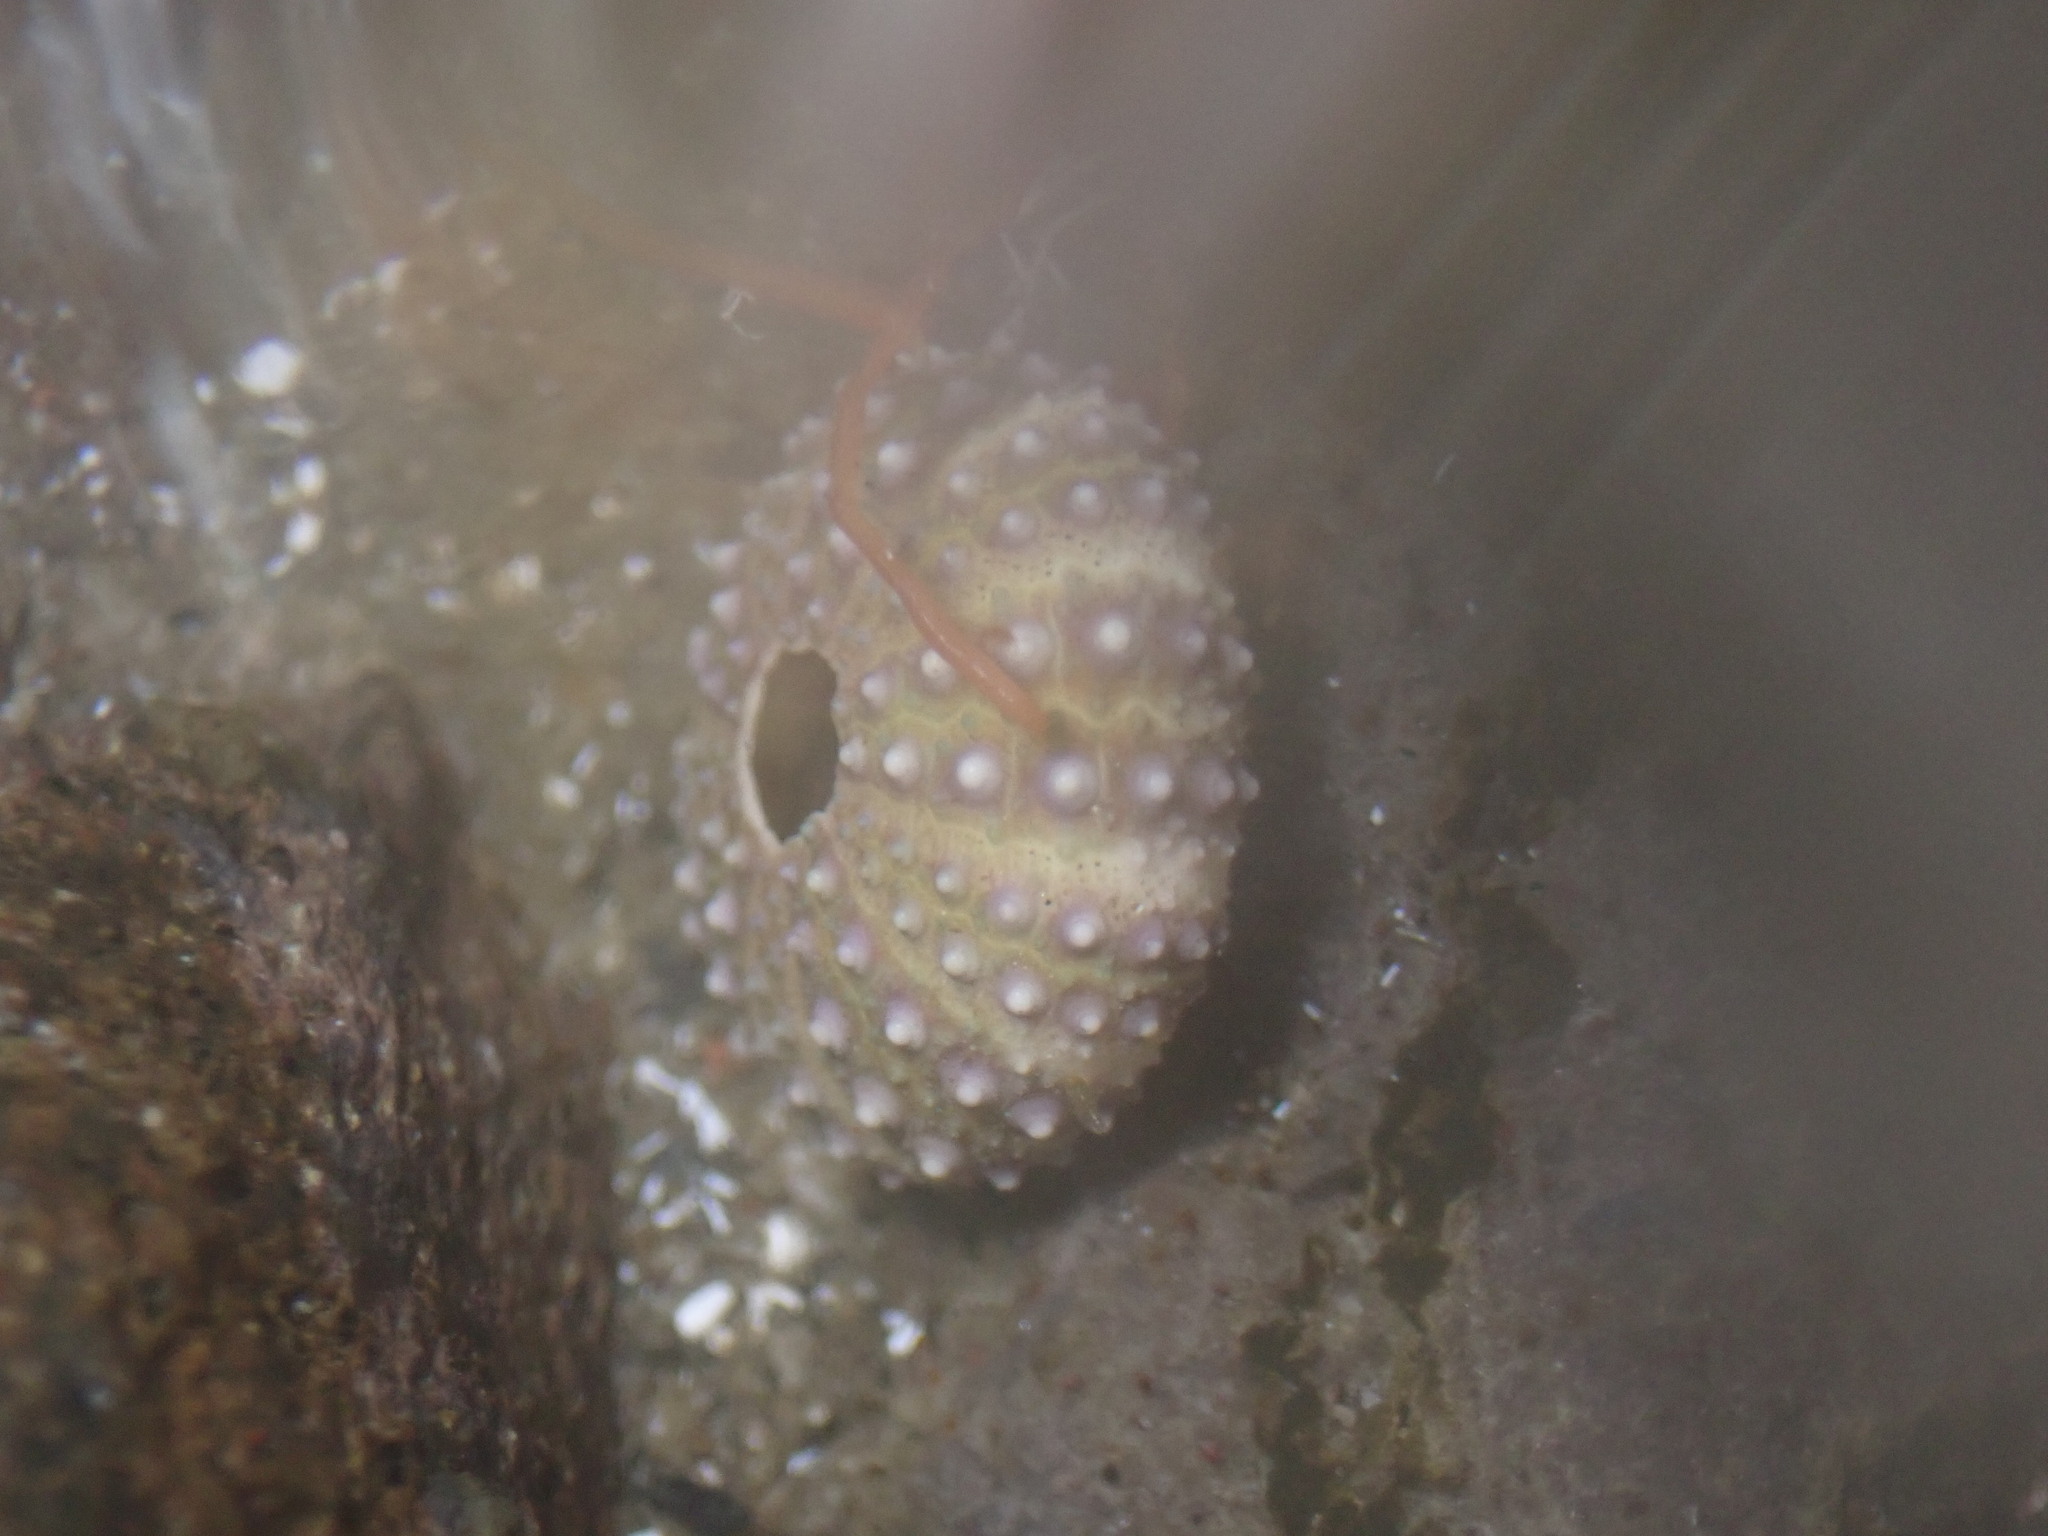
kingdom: Animalia
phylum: Echinodermata
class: Echinoidea
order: Camarodonta
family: Parechinidae
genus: Paracentrotus
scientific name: Paracentrotus lividus
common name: Purple sea urchin
